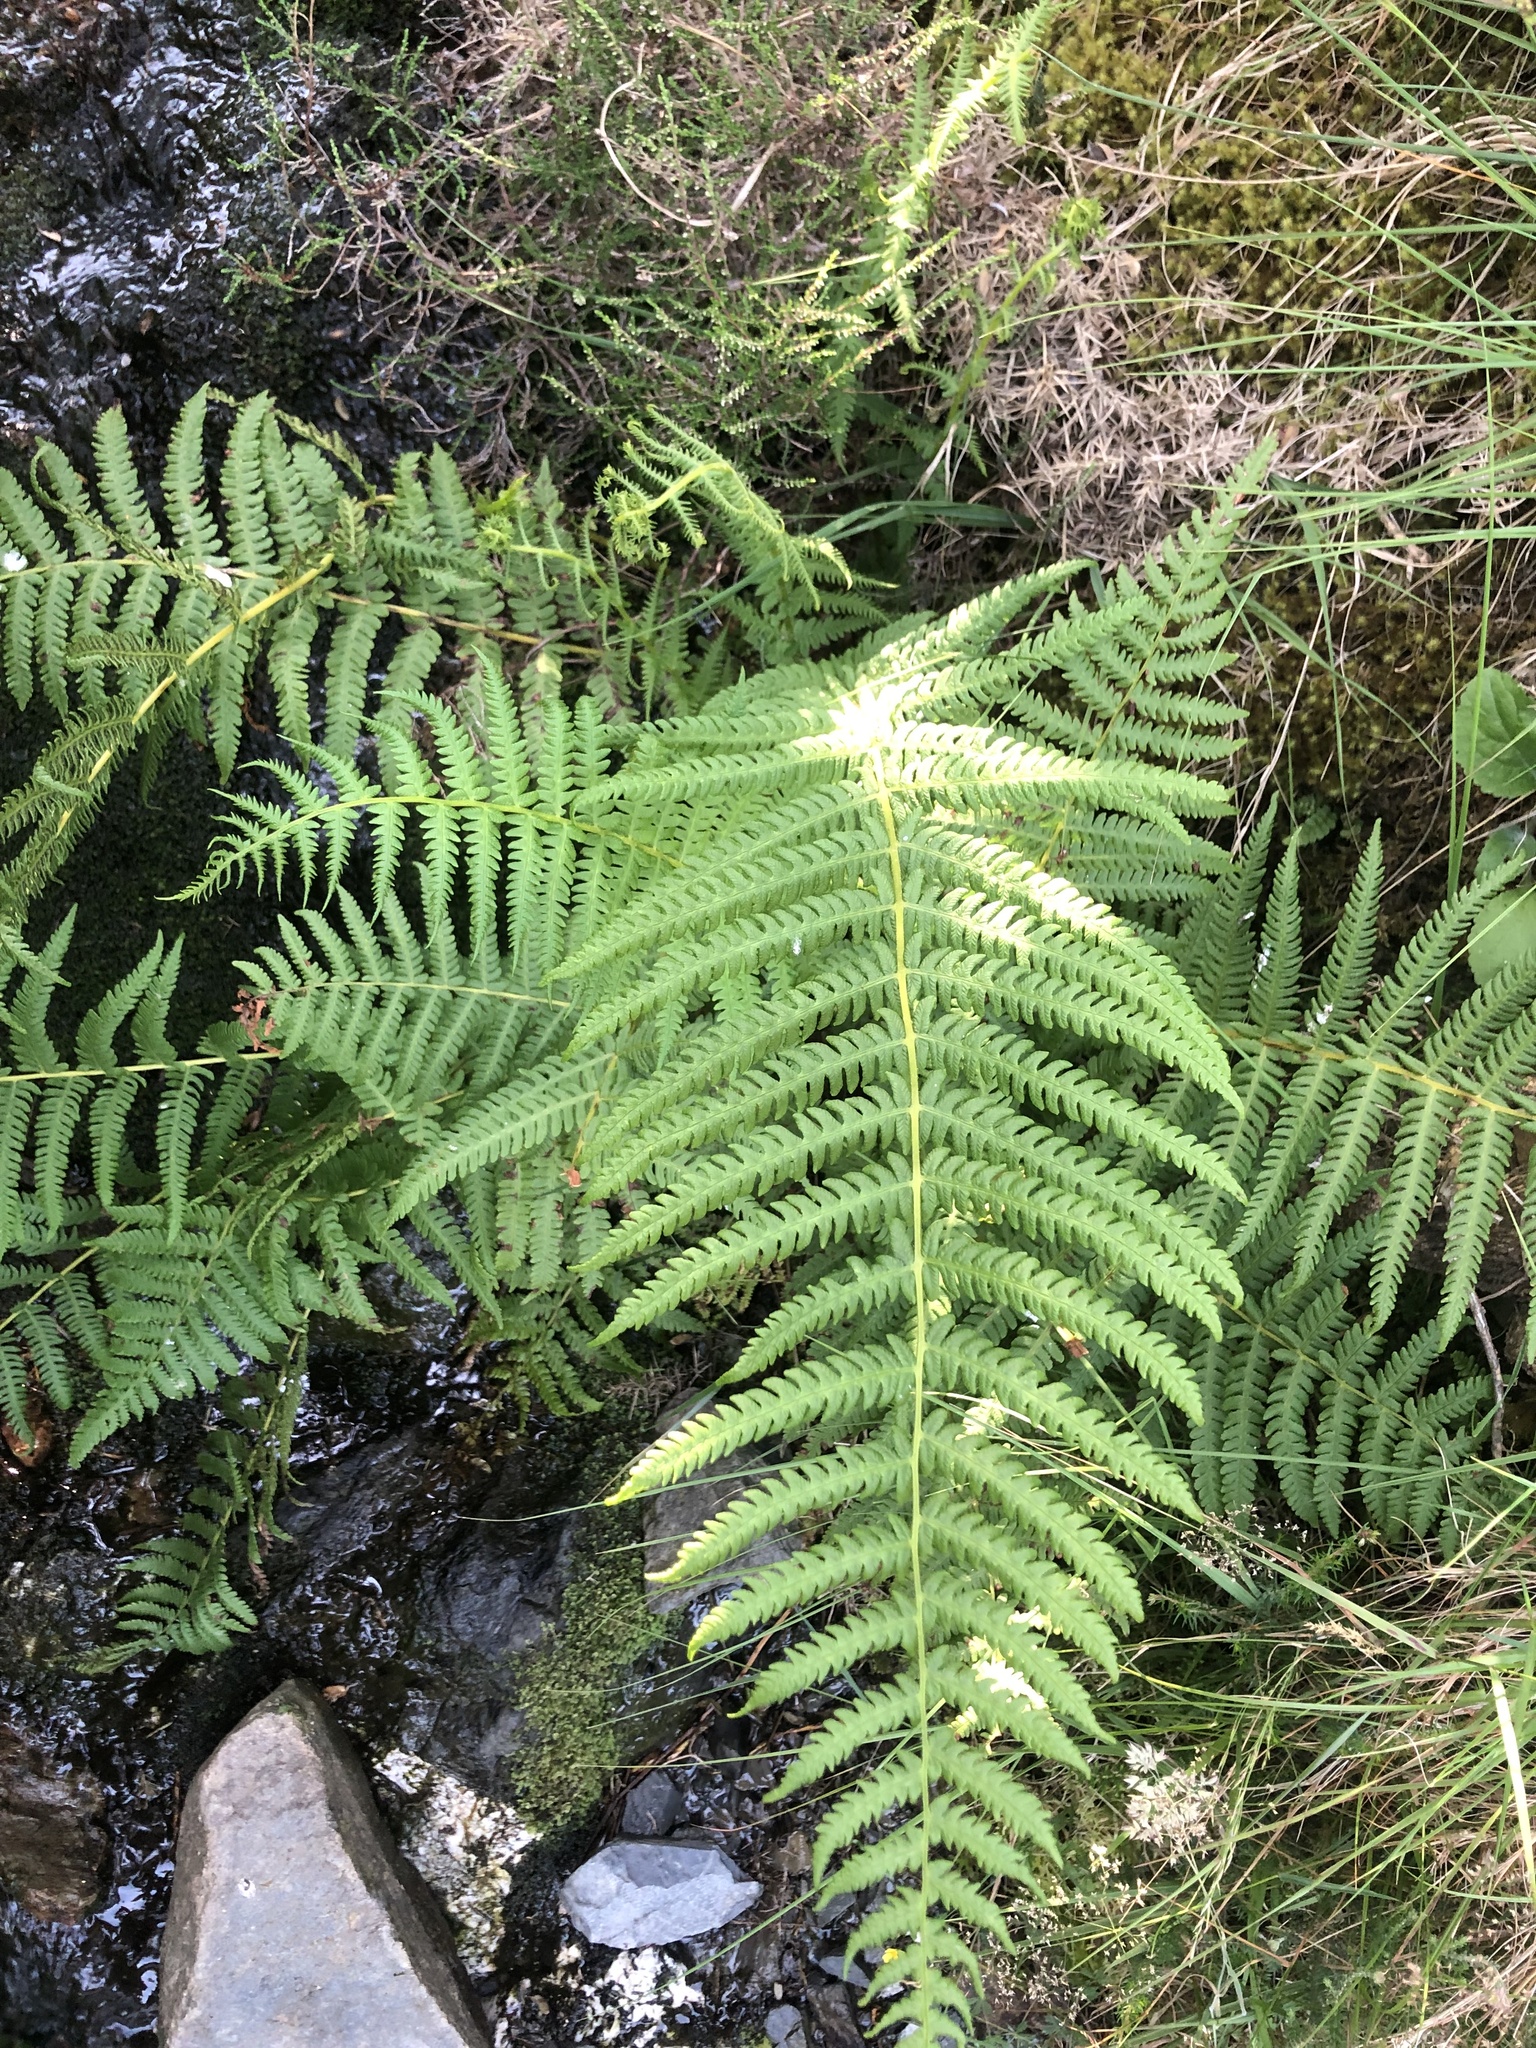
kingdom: Plantae
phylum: Tracheophyta
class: Polypodiopsida
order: Polypodiales
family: Thelypteridaceae
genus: Oreopteris
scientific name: Oreopteris limbosperma
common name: Lemon-scented fern
